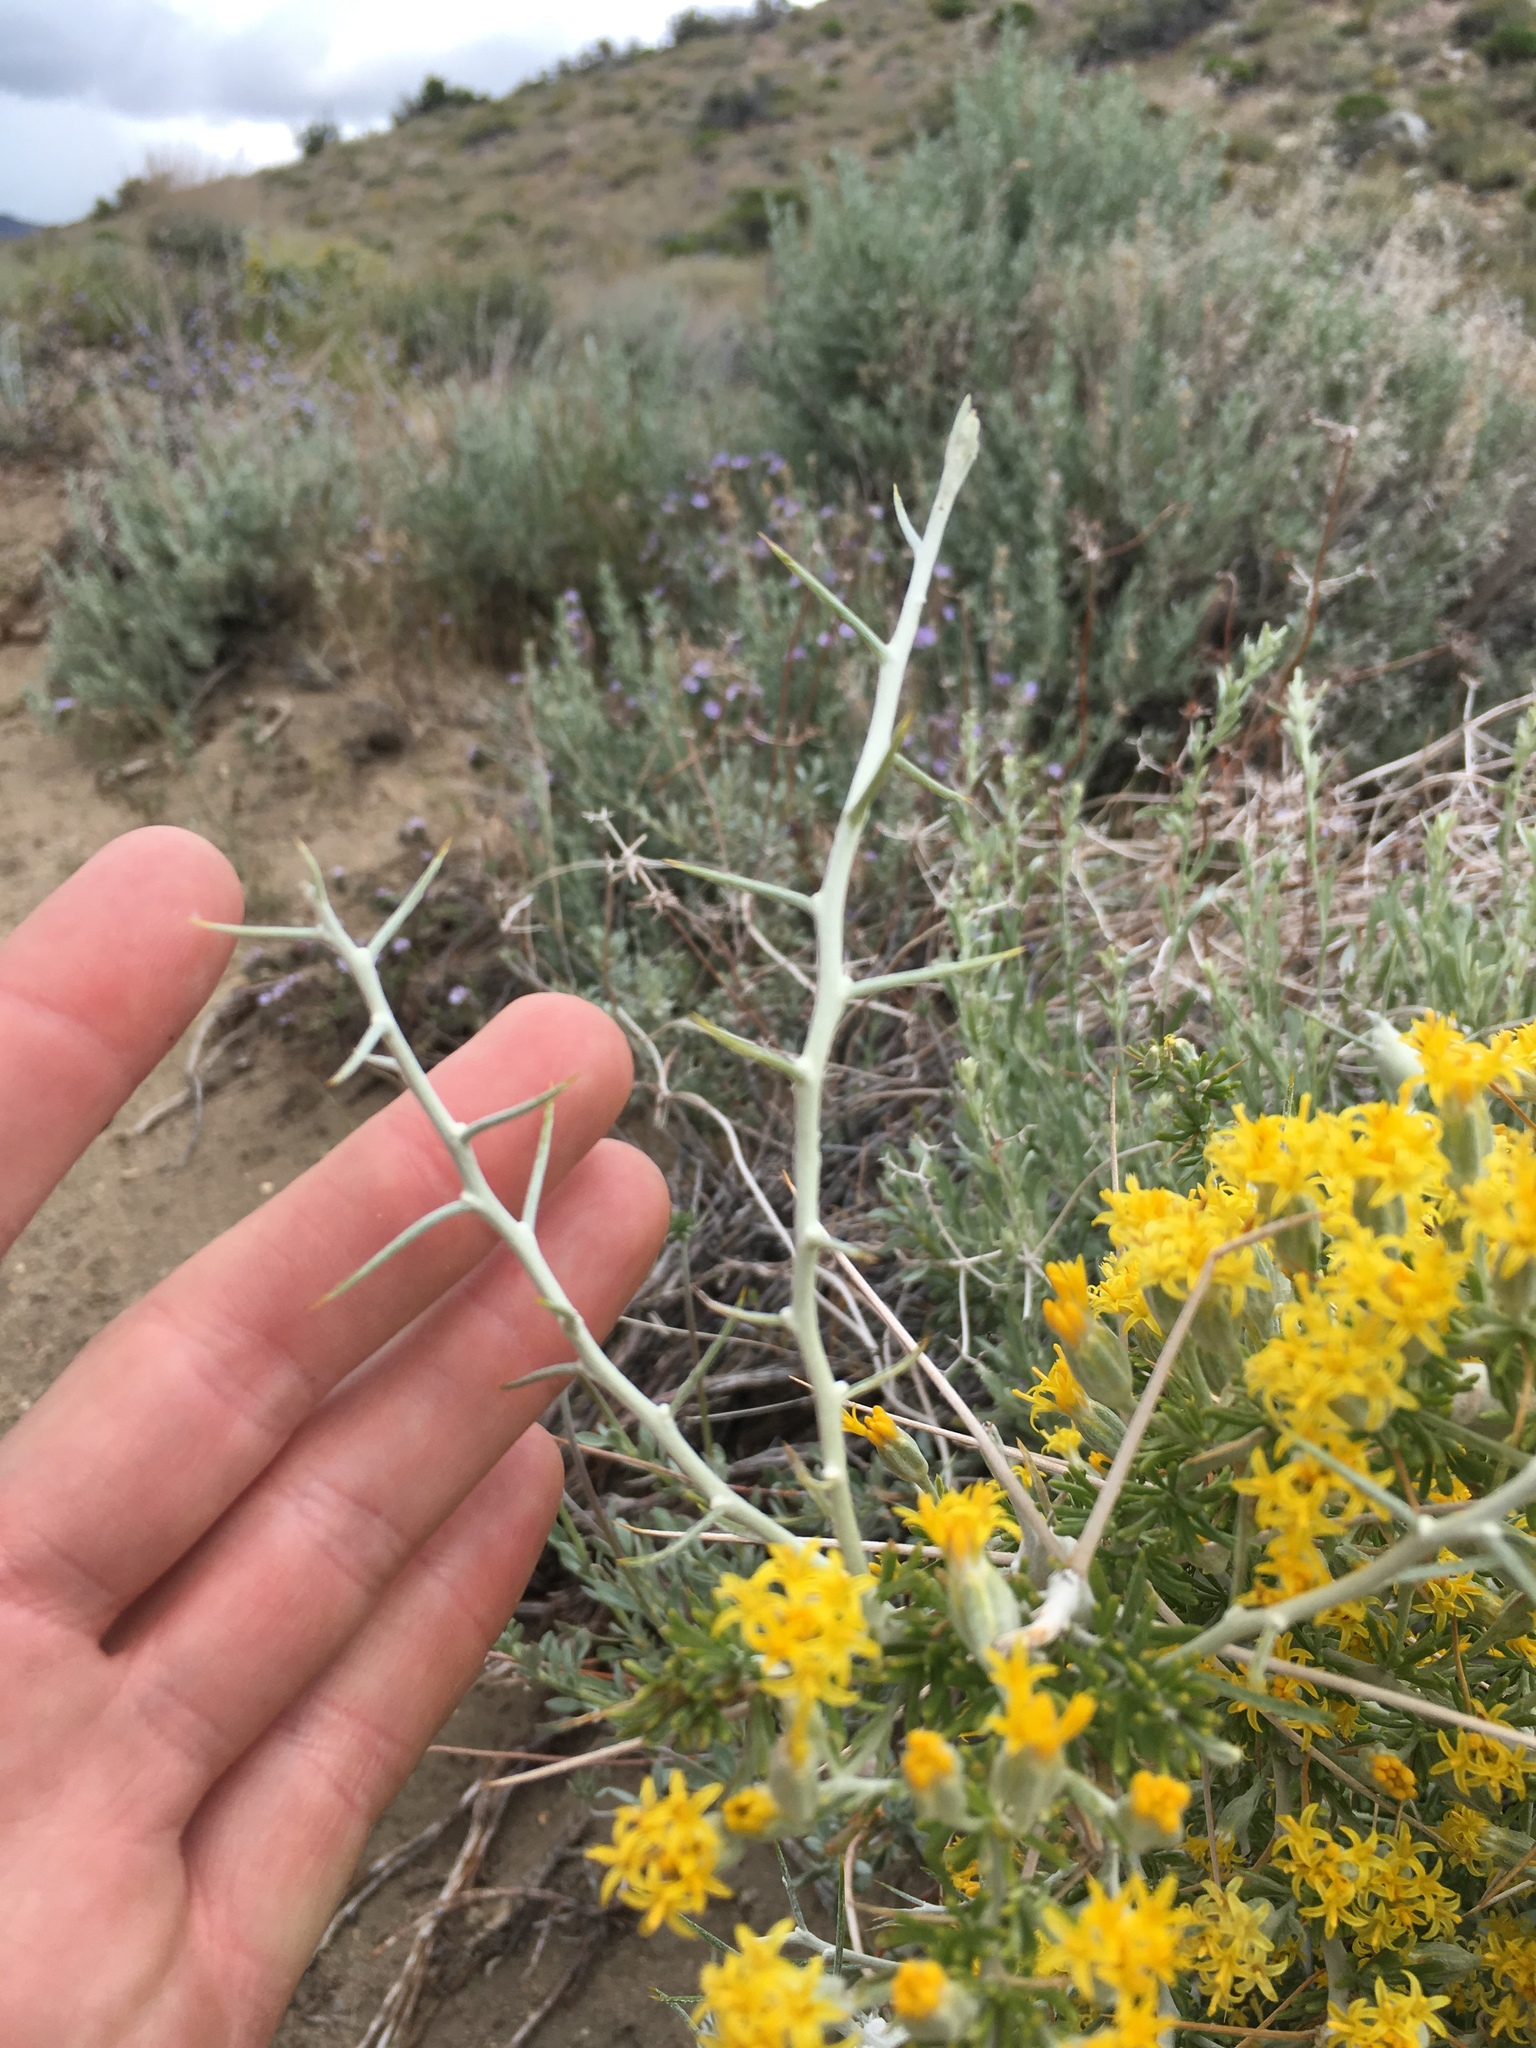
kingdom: Plantae
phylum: Tracheophyta
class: Magnoliopsida
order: Asterales
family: Asteraceae
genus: Tetradymia
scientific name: Tetradymia axillaris
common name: Long-spine horsebrush
